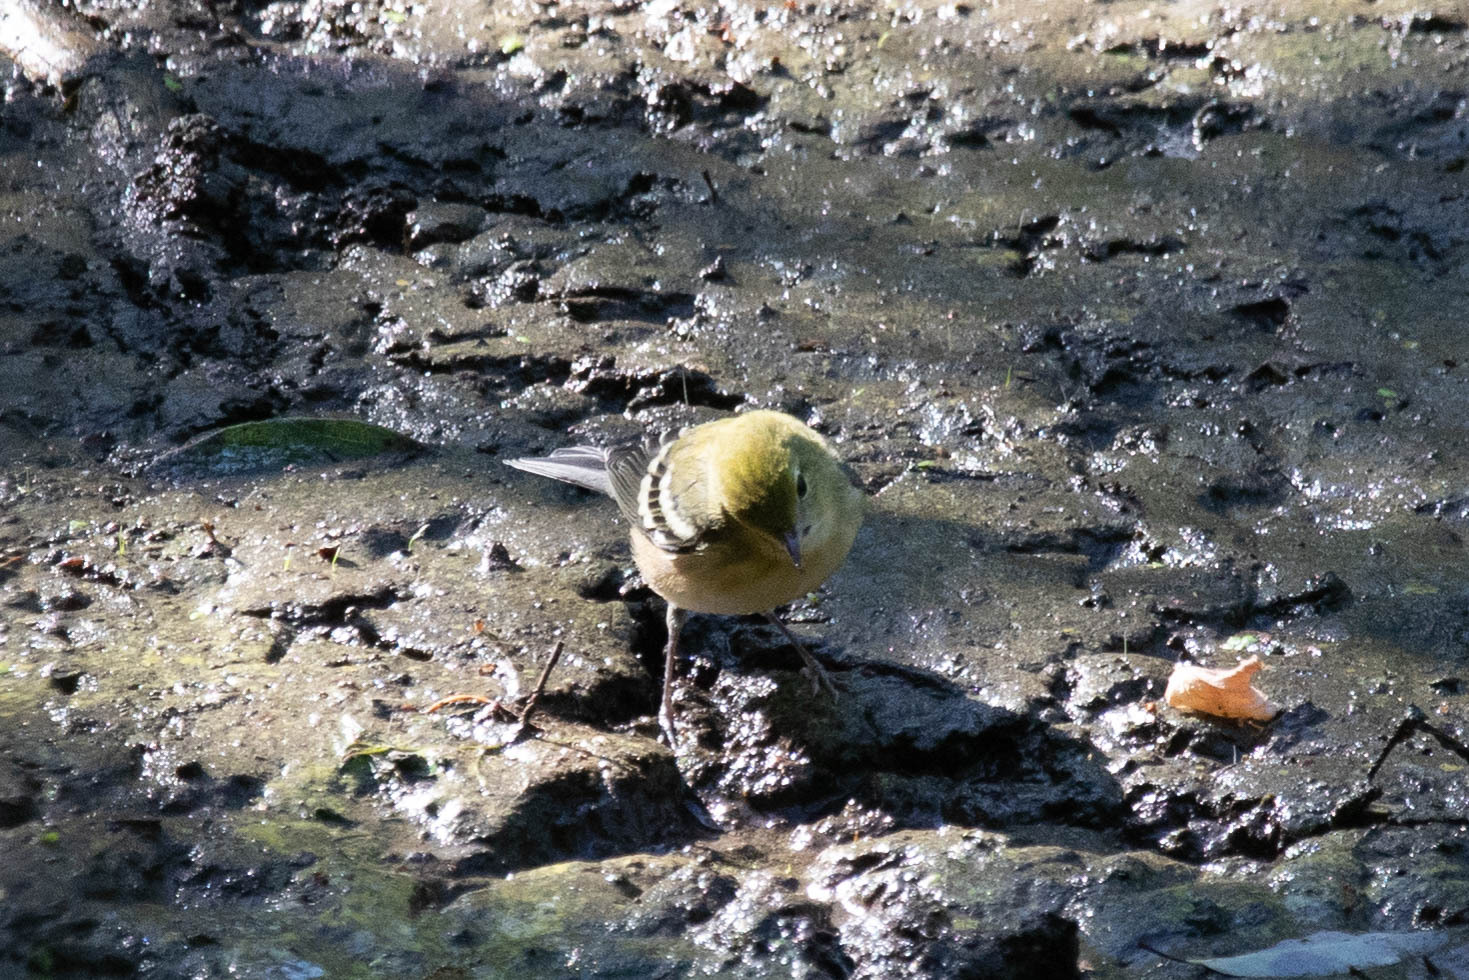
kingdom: Animalia
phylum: Chordata
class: Aves
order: Passeriformes
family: Parulidae
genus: Setophaga
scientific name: Setophaga castanea
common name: Bay-breasted warbler
